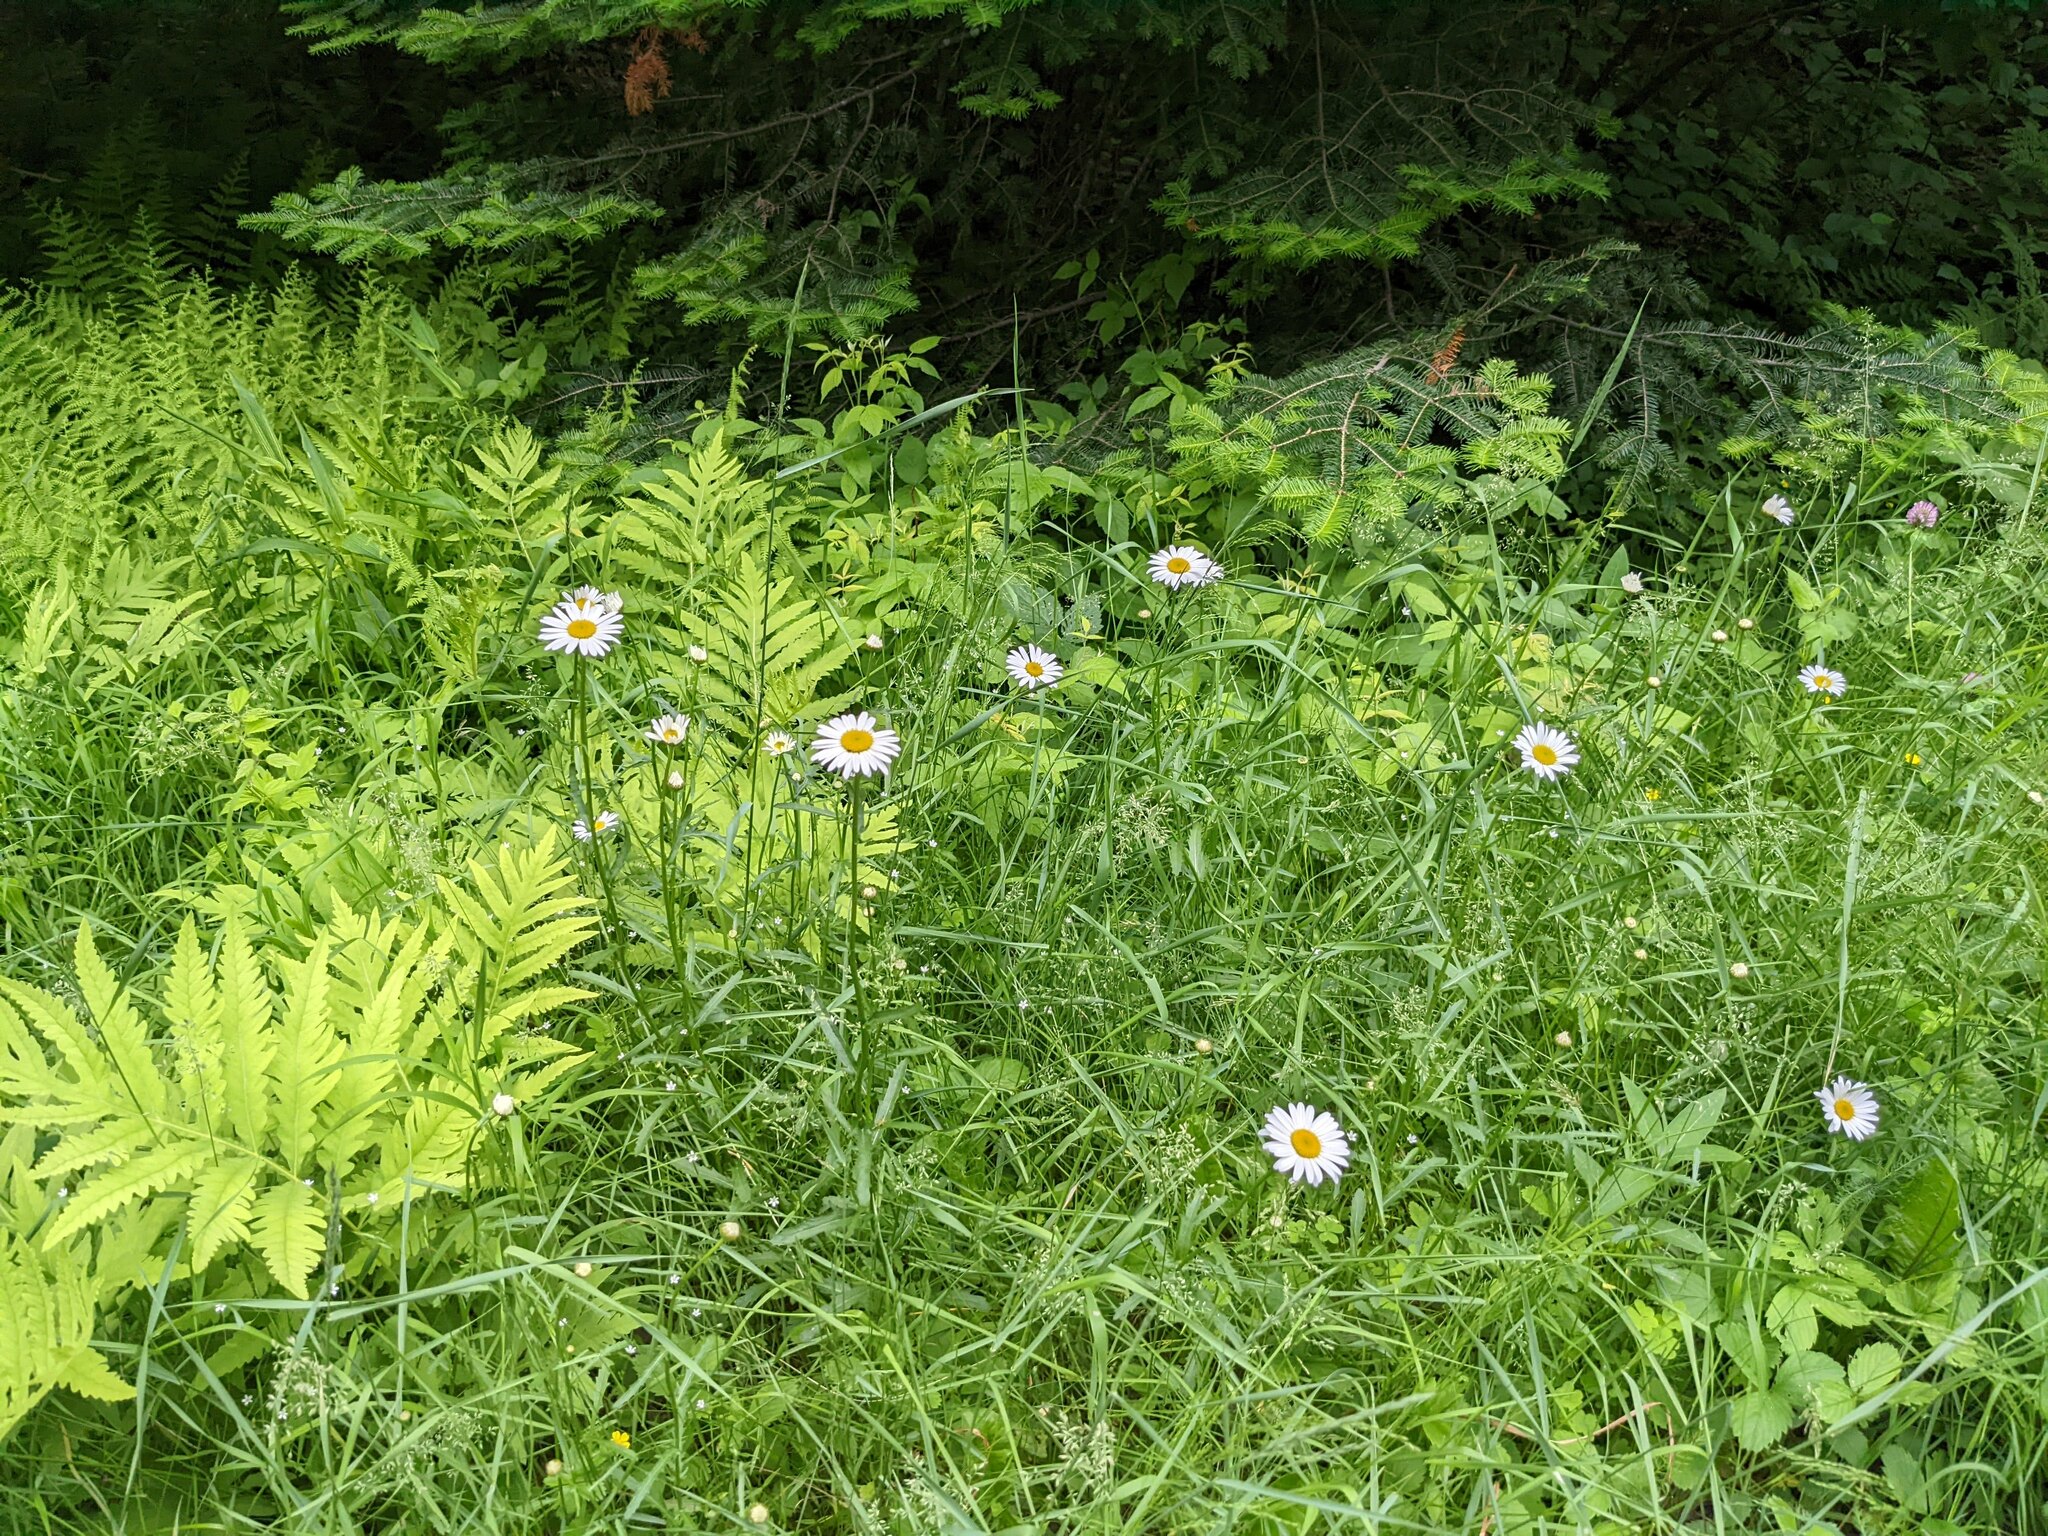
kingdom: Plantae
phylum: Tracheophyta
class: Magnoliopsida
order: Asterales
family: Asteraceae
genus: Leucanthemum
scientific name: Leucanthemum vulgare
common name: Oxeye daisy
